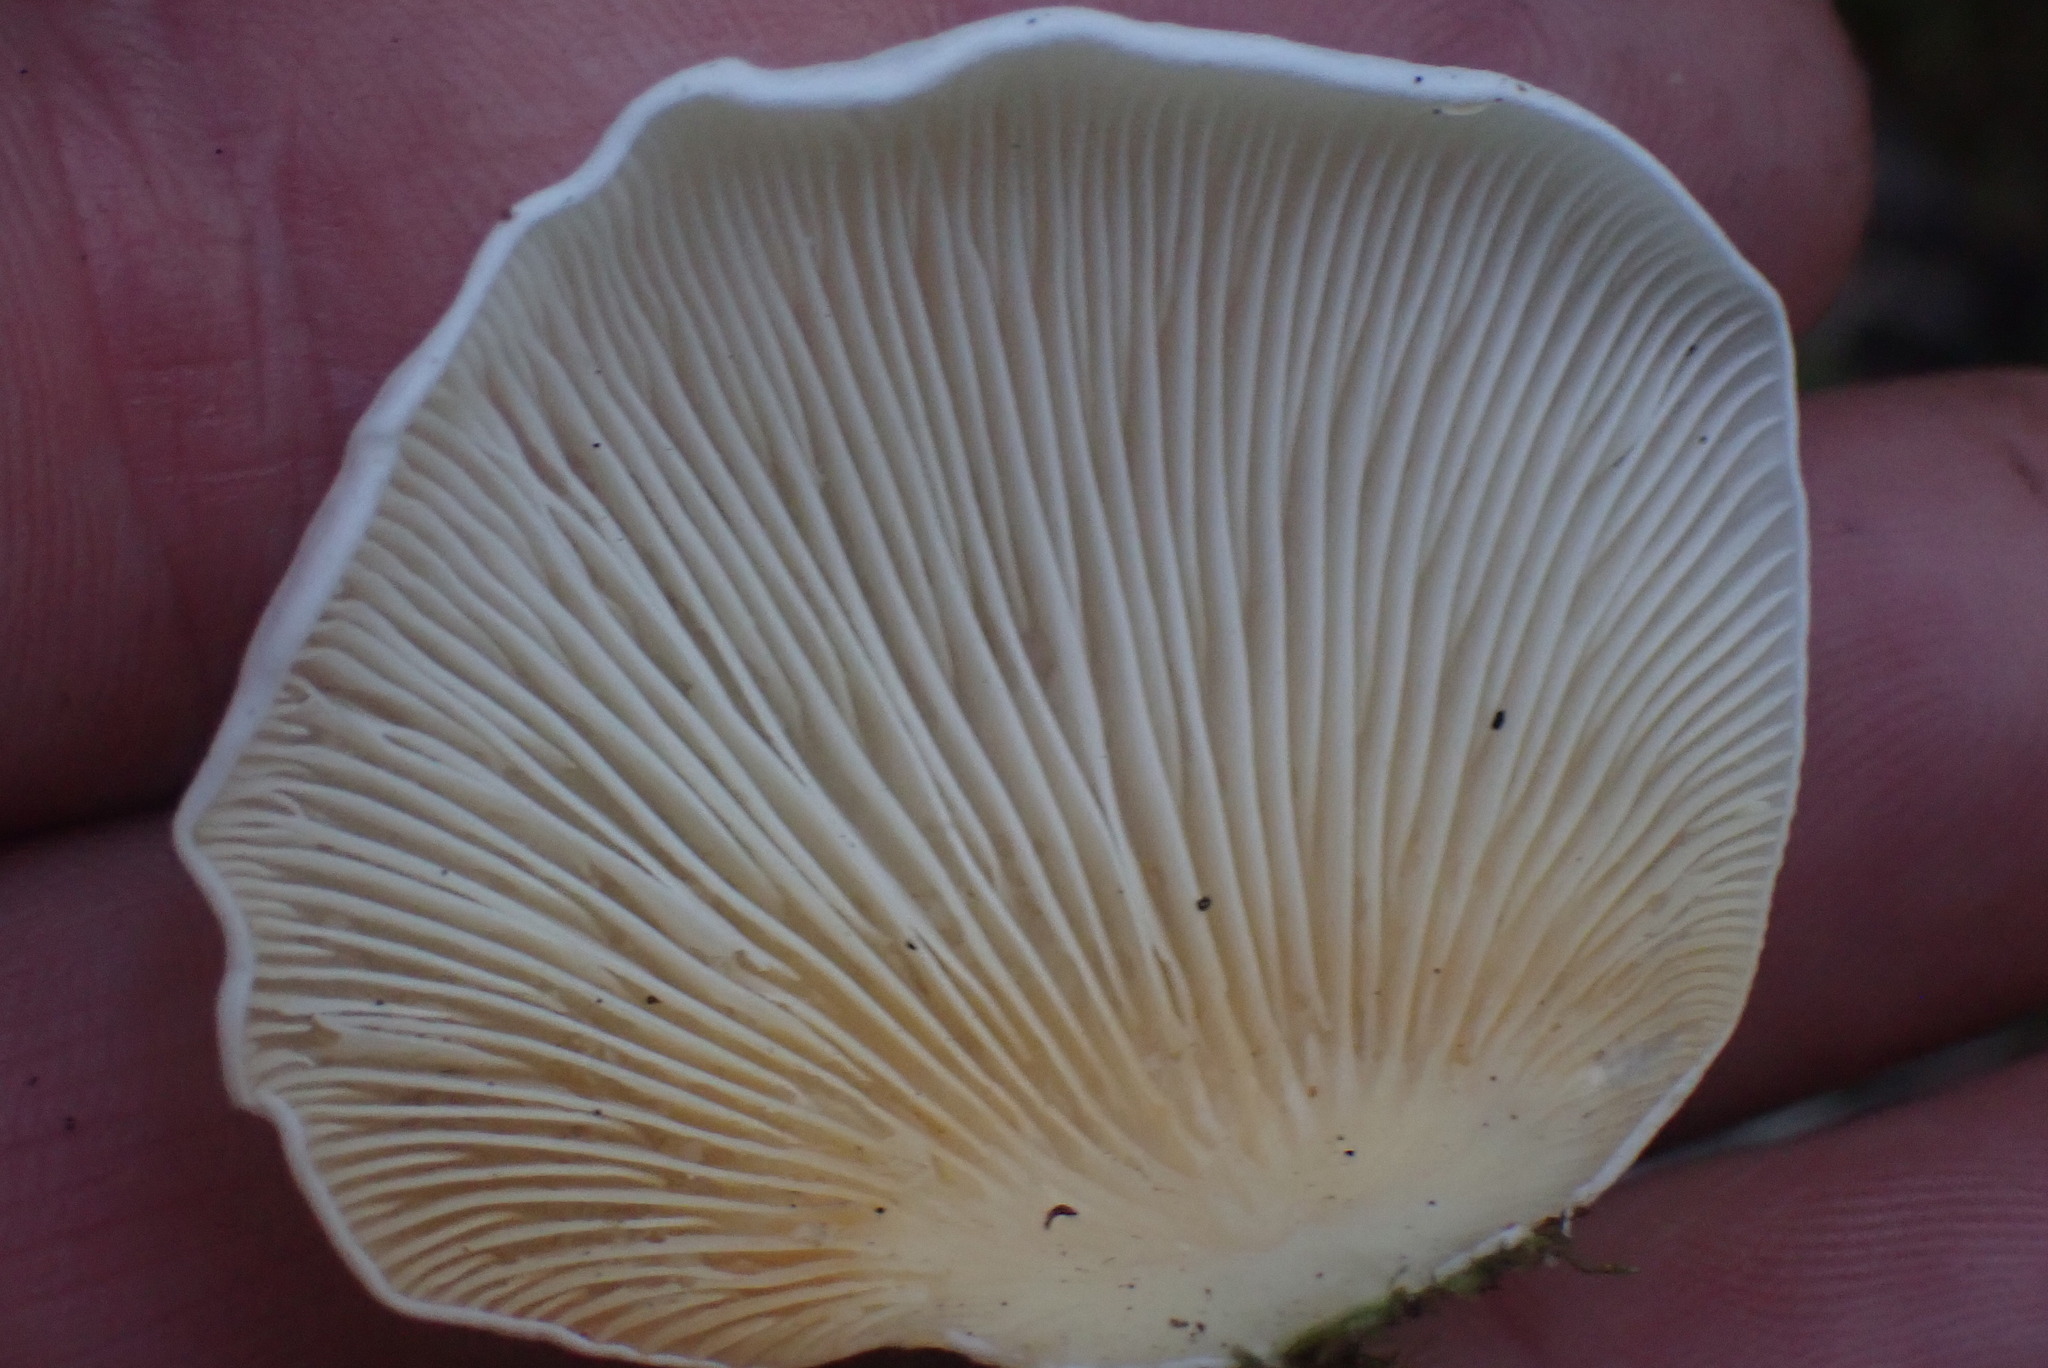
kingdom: Fungi
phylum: Basidiomycota
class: Agaricomycetes
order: Agaricales
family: Marasmiaceae
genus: Pleurocybella
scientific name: Pleurocybella porrigens
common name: Angel's wings
